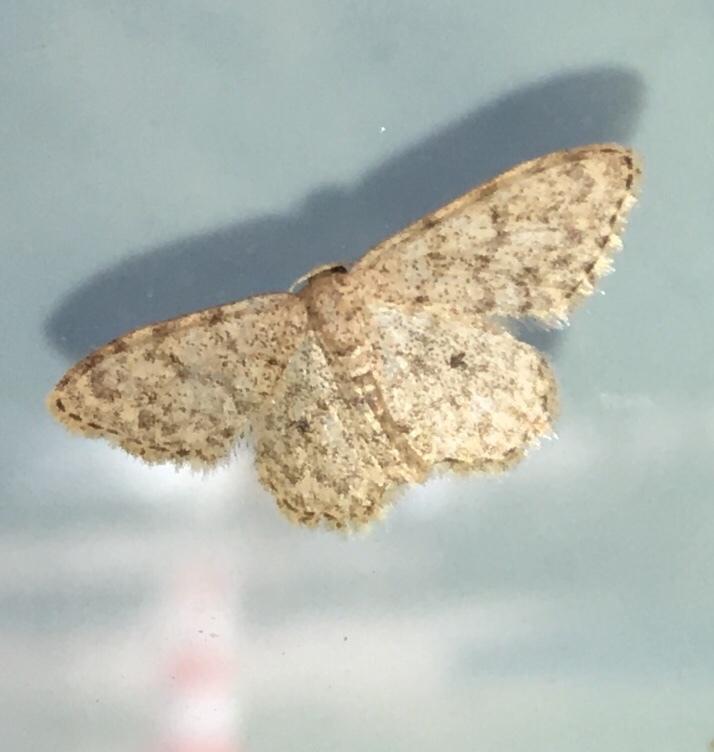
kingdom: Animalia
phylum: Arthropoda
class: Insecta
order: Lepidoptera
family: Geometridae
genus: Idaea
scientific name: Idaea typicata
